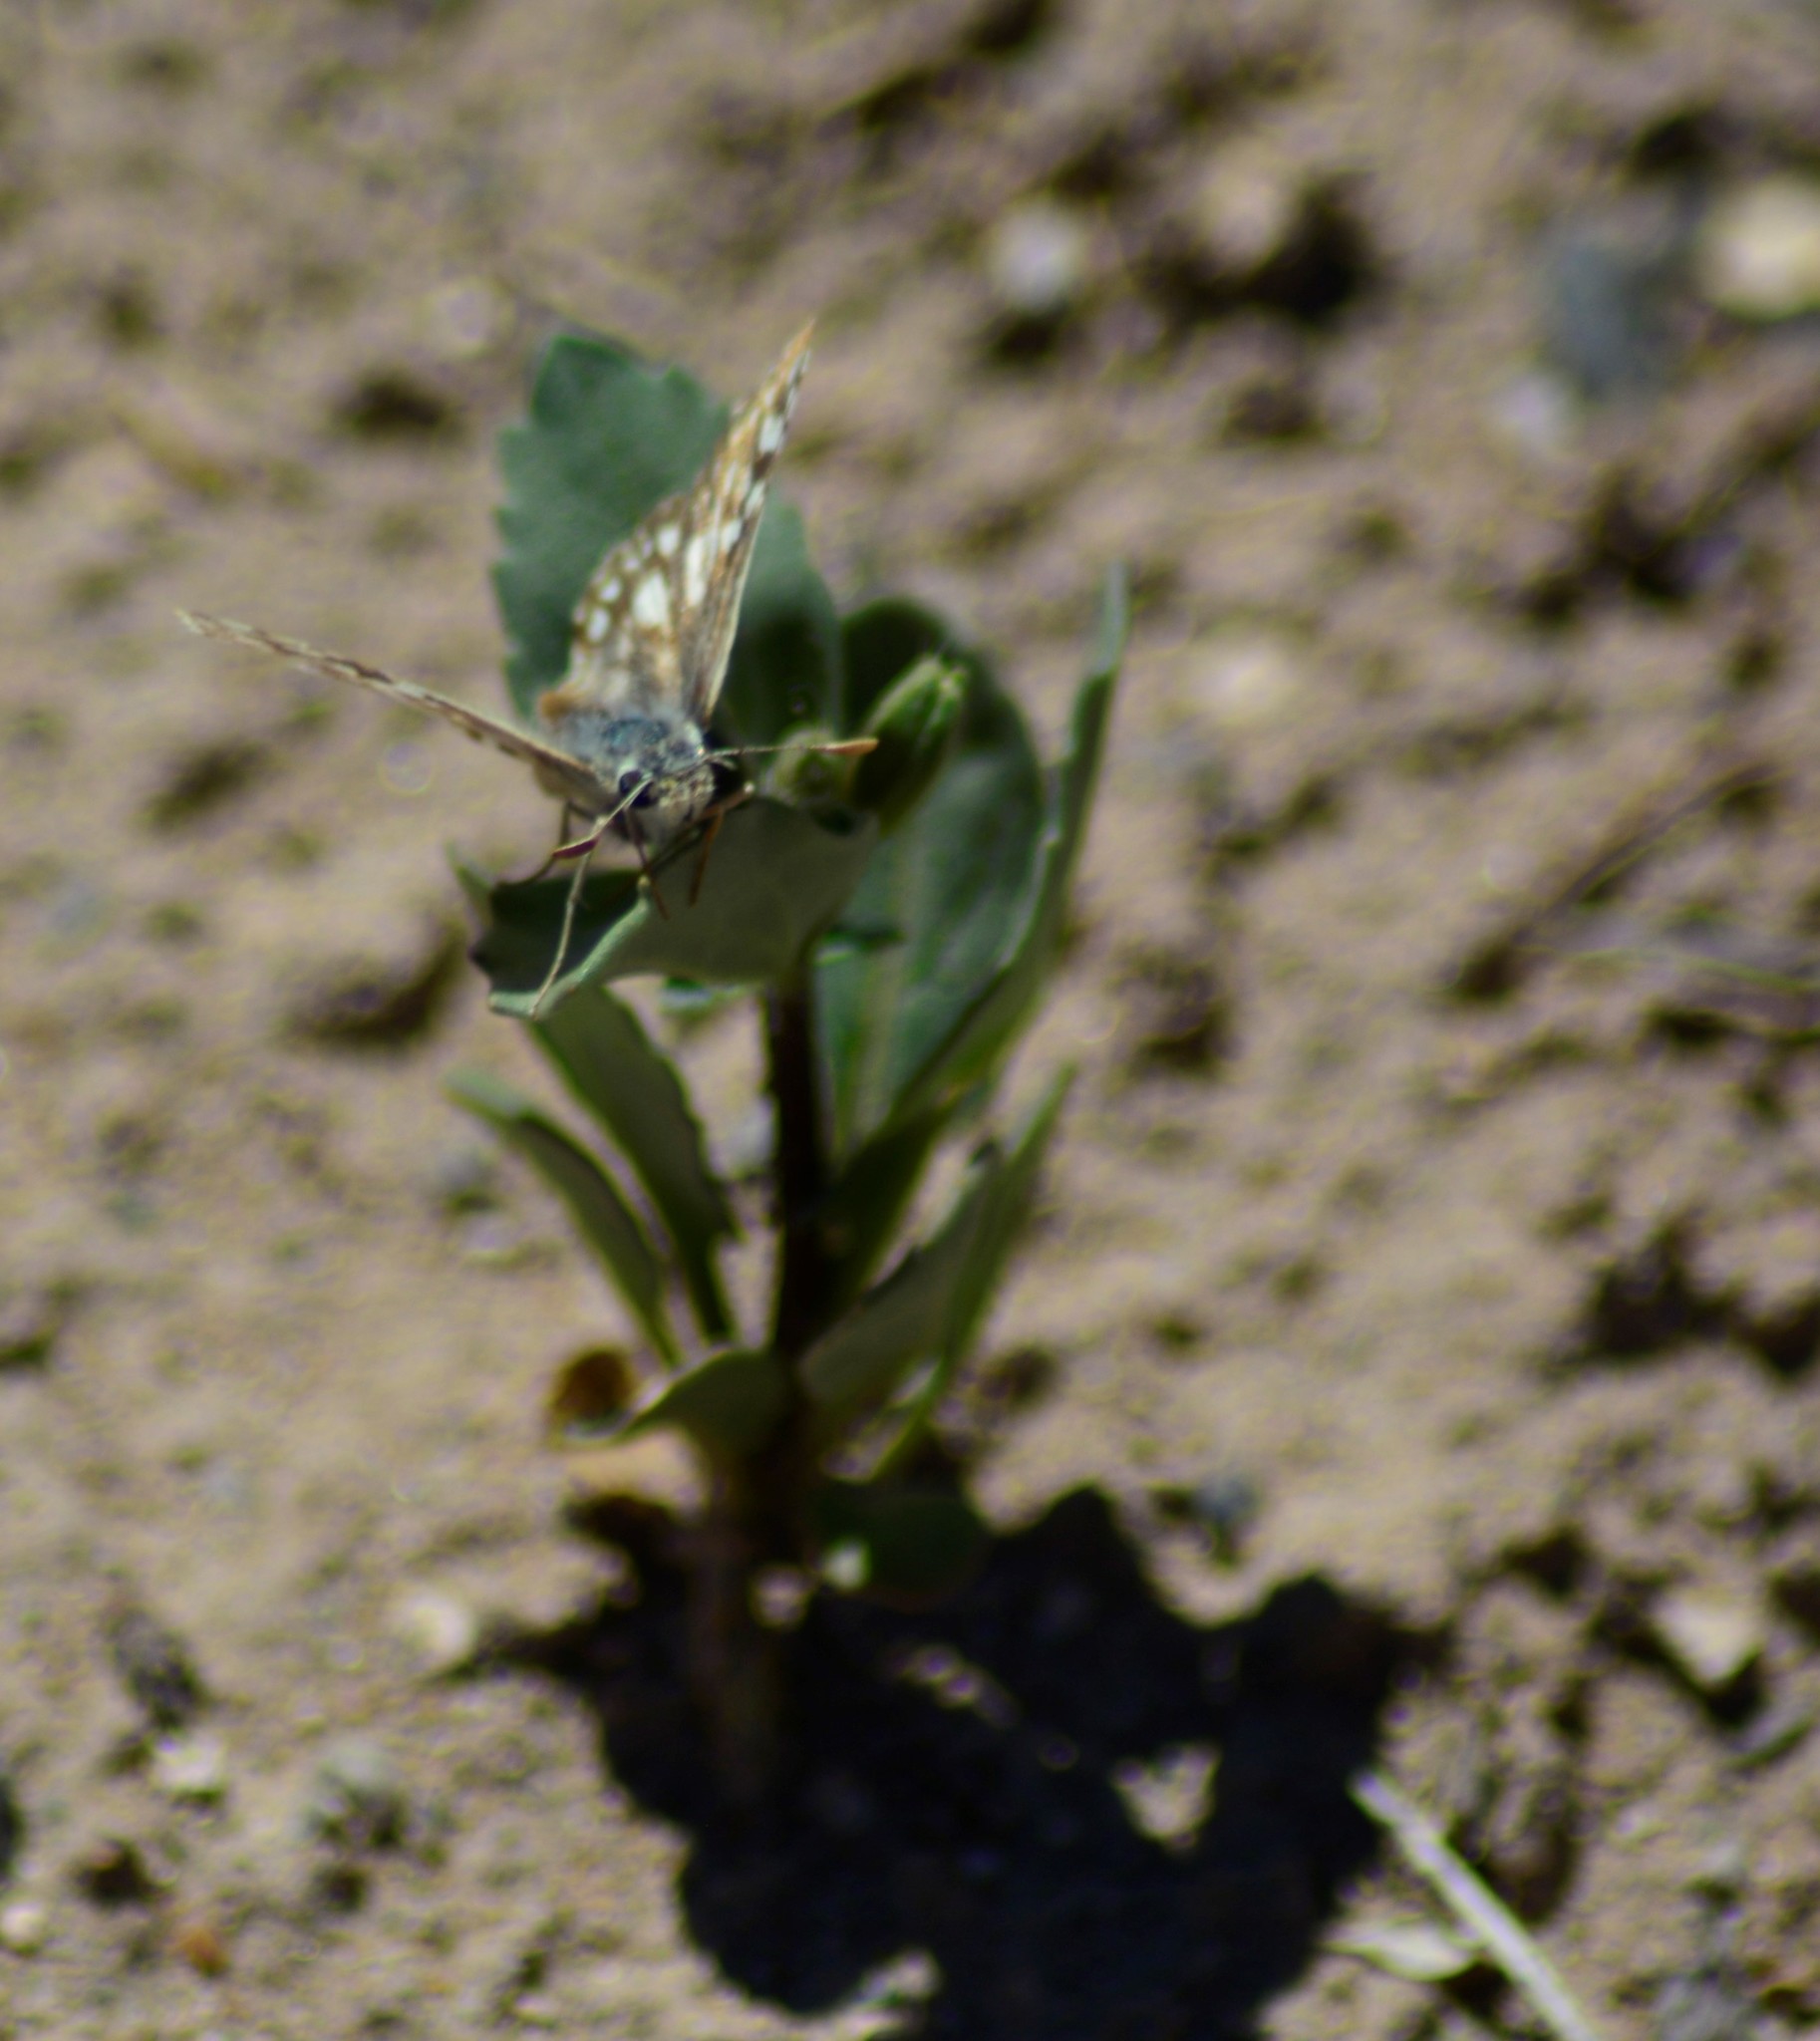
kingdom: Animalia
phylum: Arthropoda
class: Insecta
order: Lepidoptera
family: Hesperiidae
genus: Heliopetes
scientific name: Heliopetes americanus
